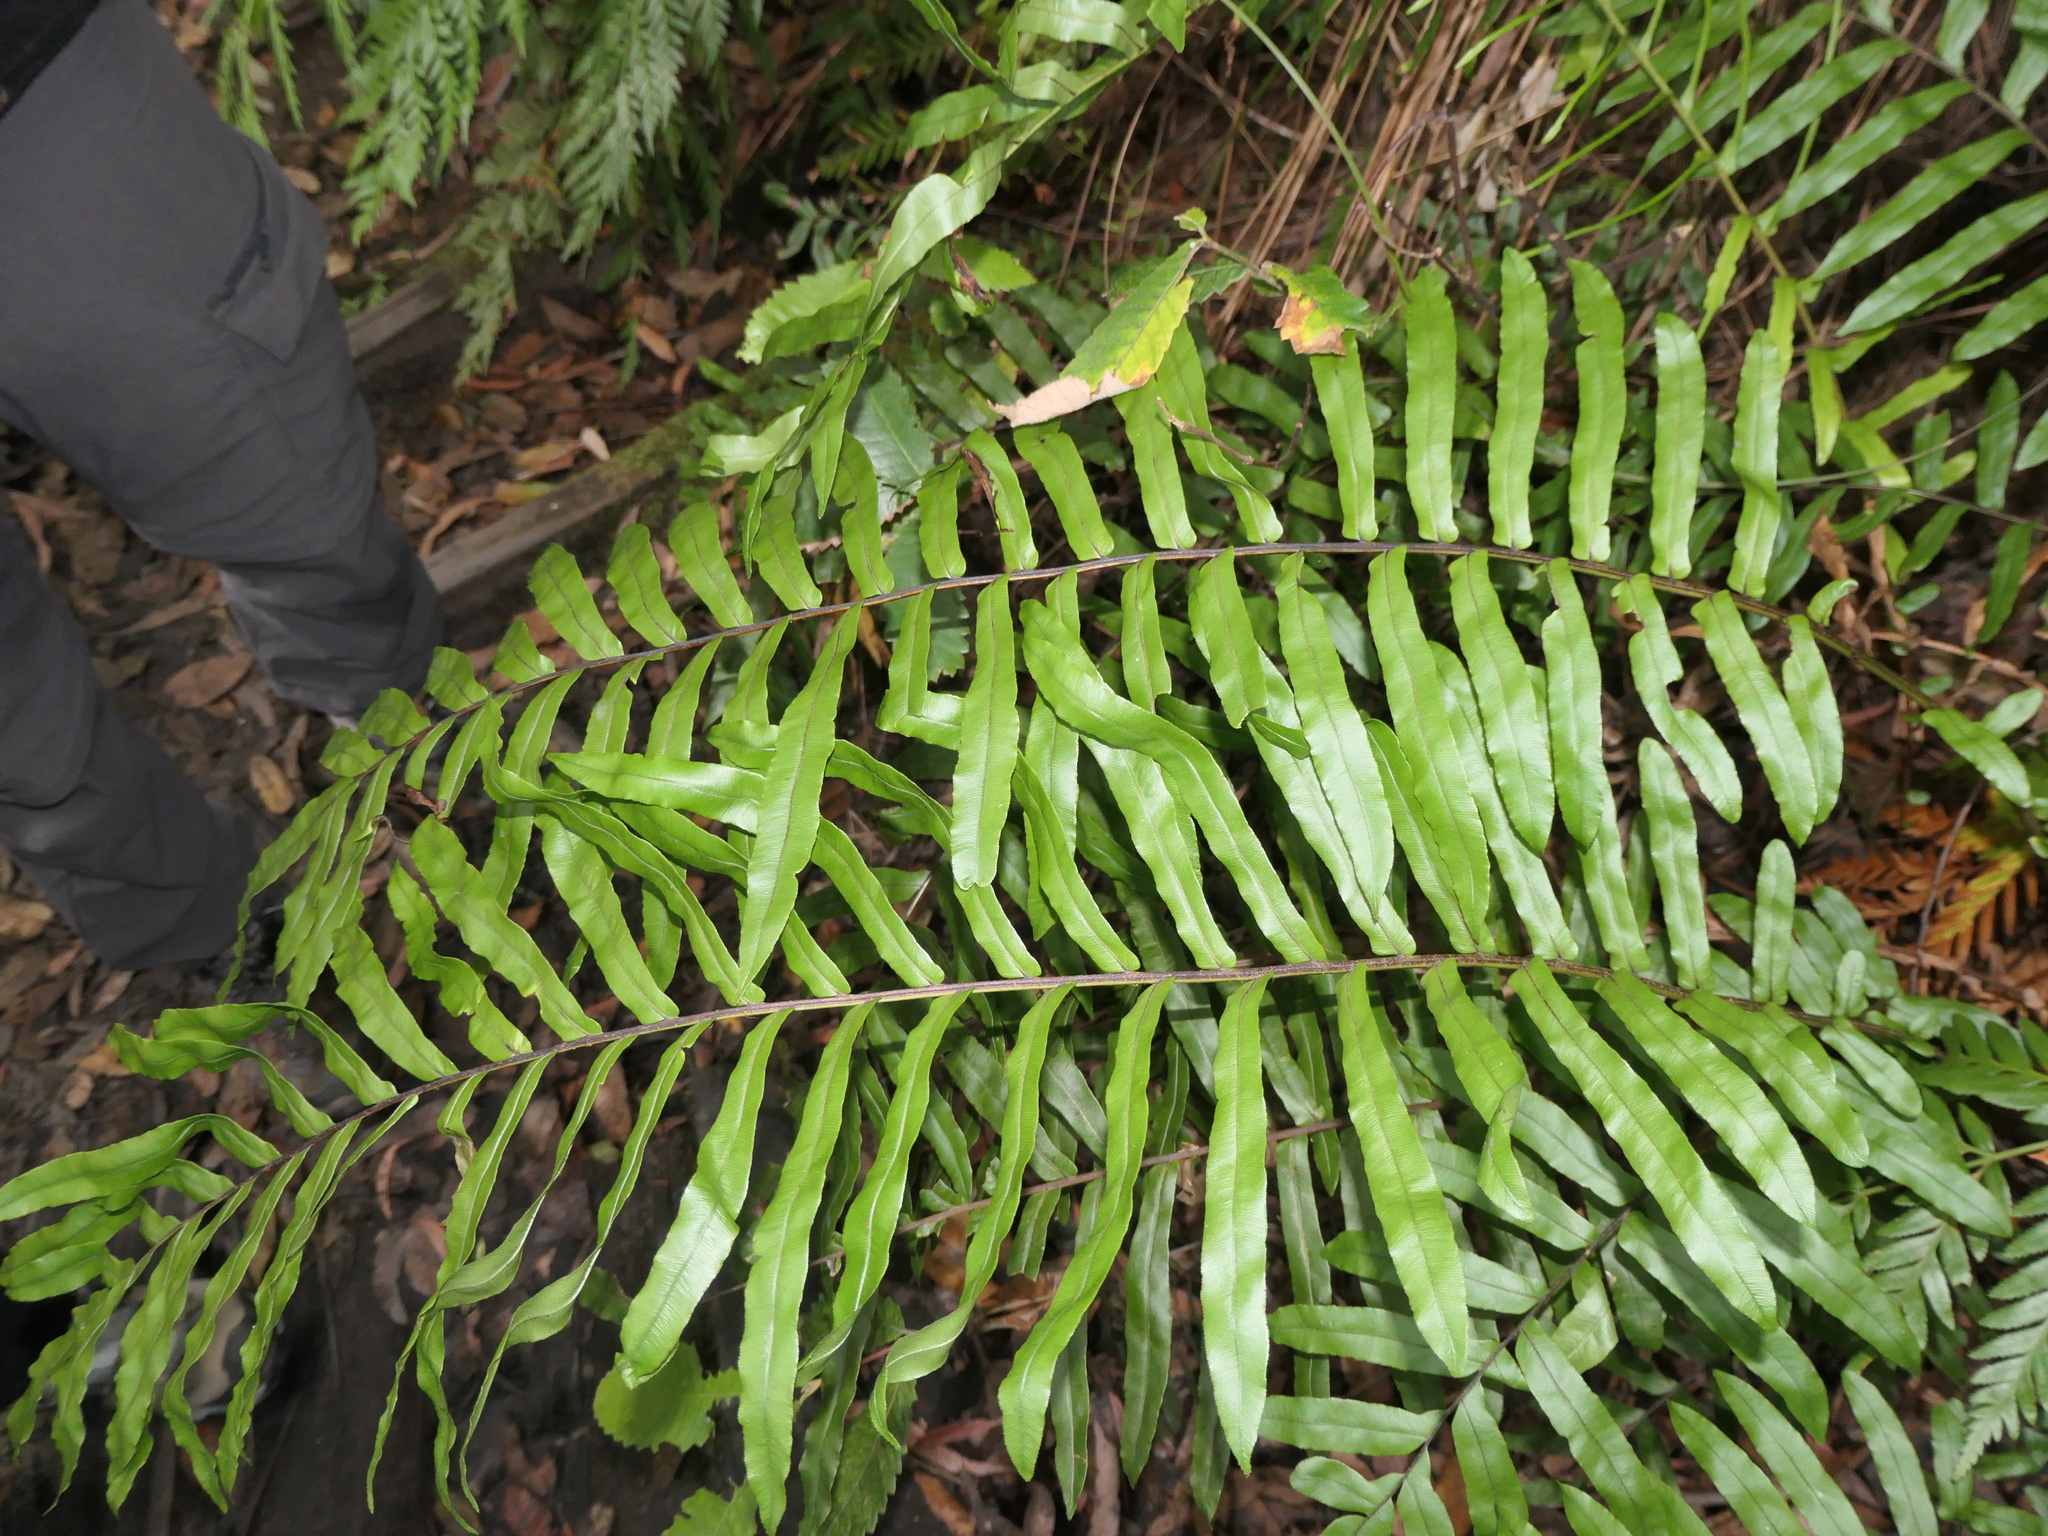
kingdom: Plantae
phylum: Tracheophyta
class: Polypodiopsida
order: Polypodiales
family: Blechnaceae
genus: Parablechnum
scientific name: Parablechnum minus
